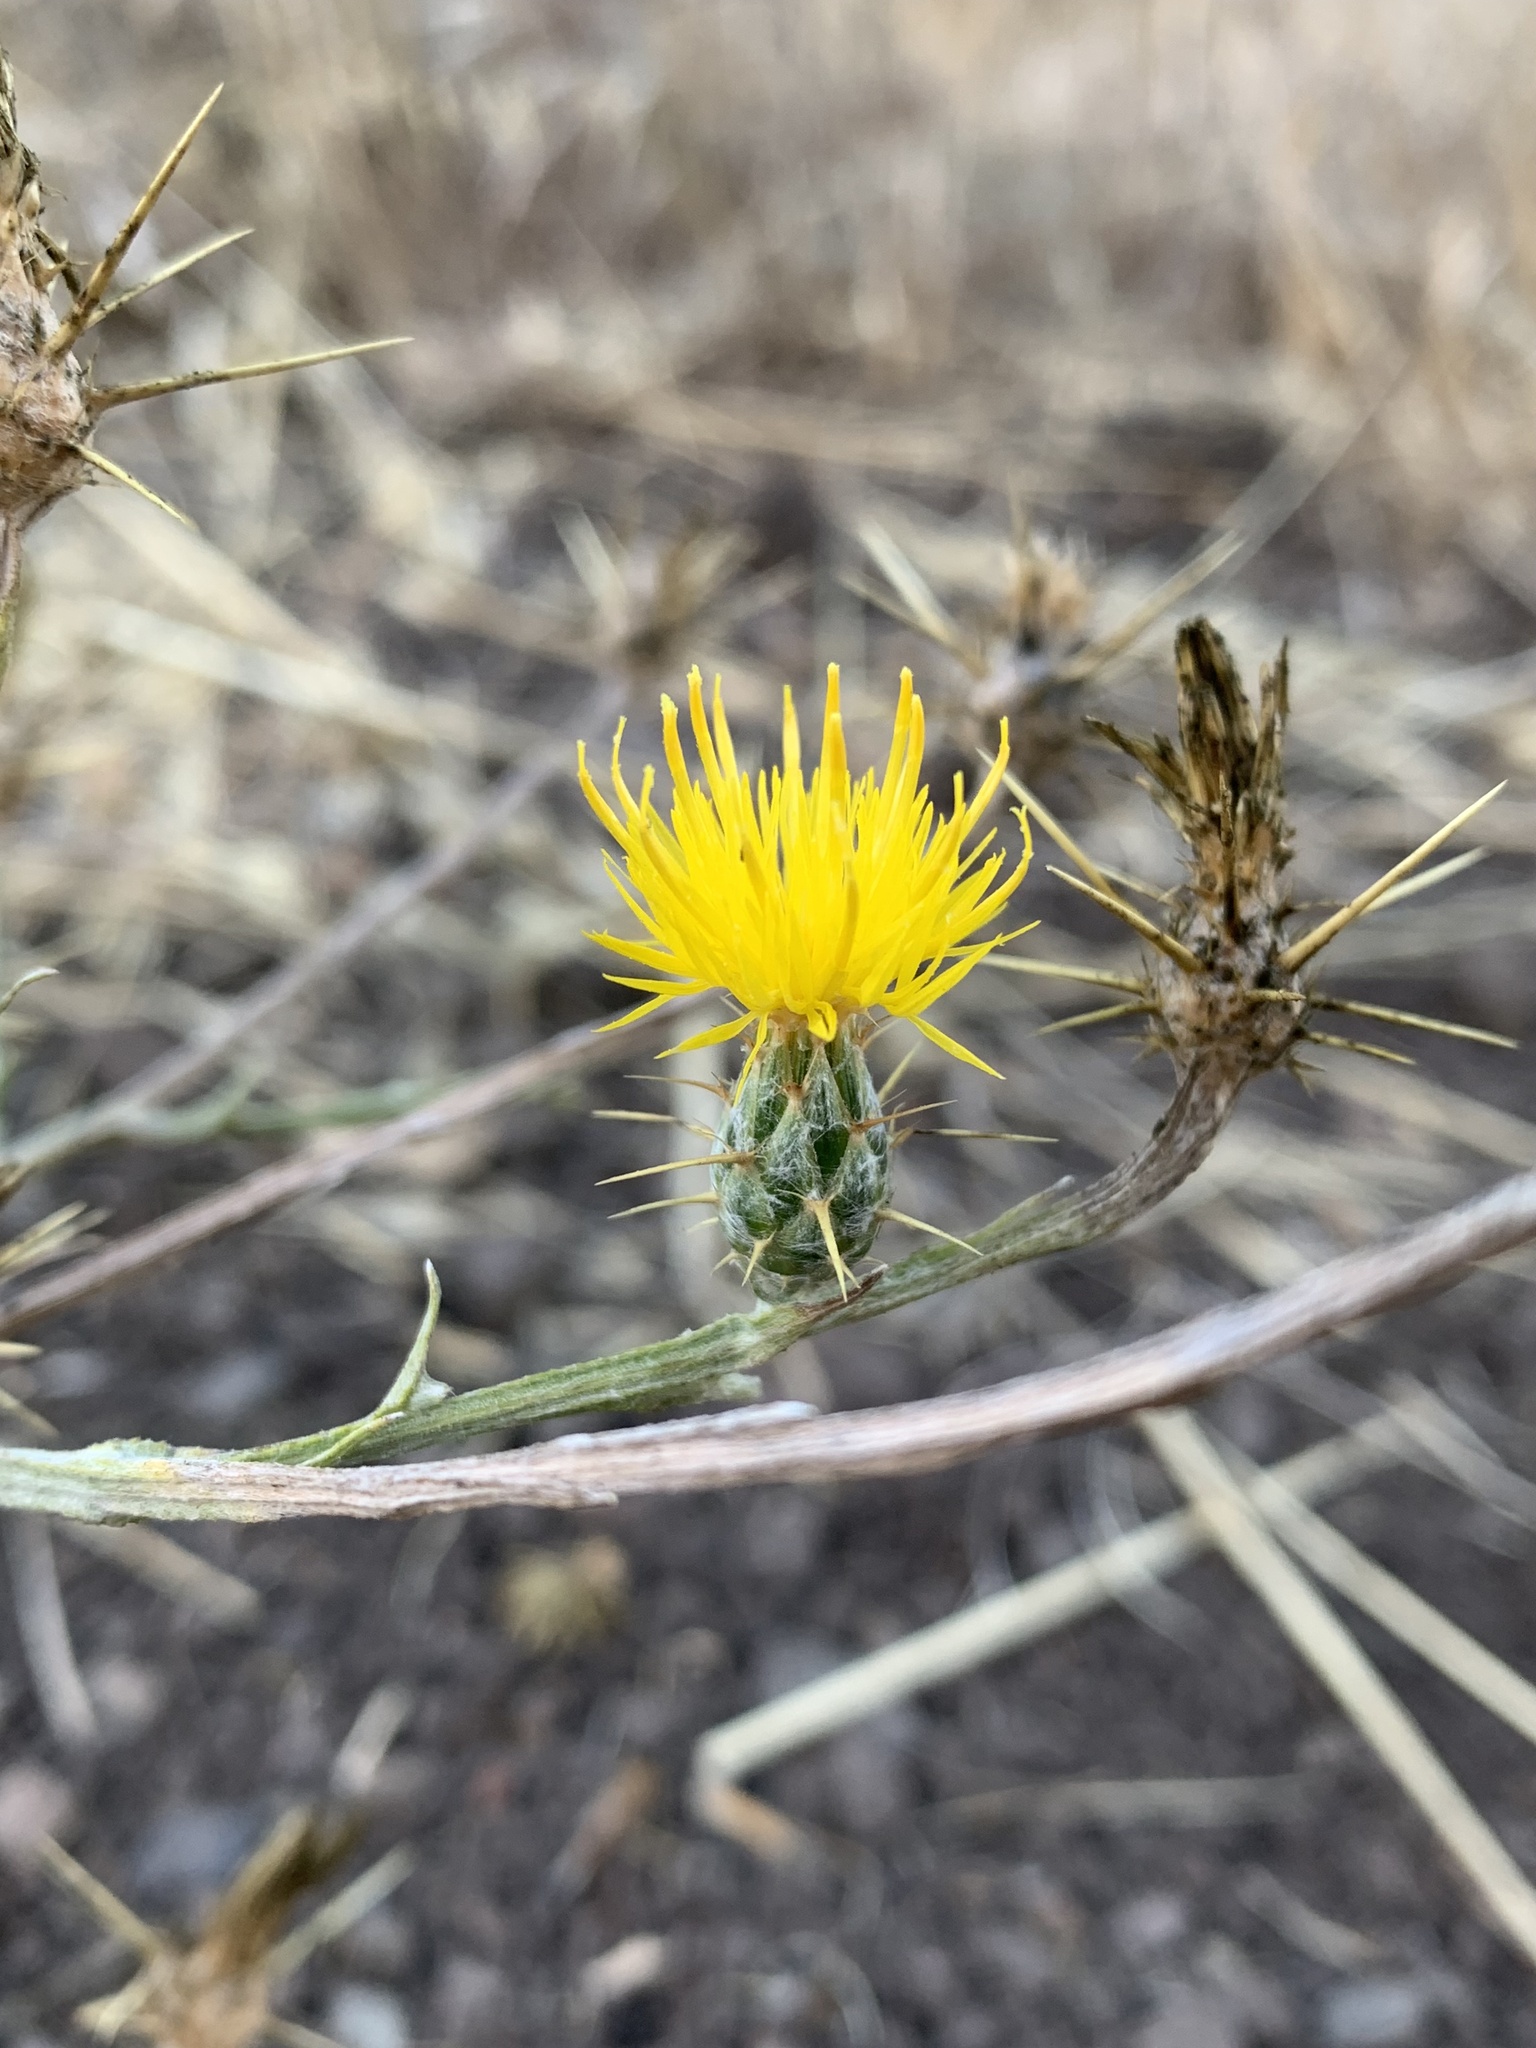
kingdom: Plantae
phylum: Tracheophyta
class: Magnoliopsida
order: Asterales
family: Asteraceae
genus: Centaurea
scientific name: Centaurea solstitialis
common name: Yellow star-thistle
